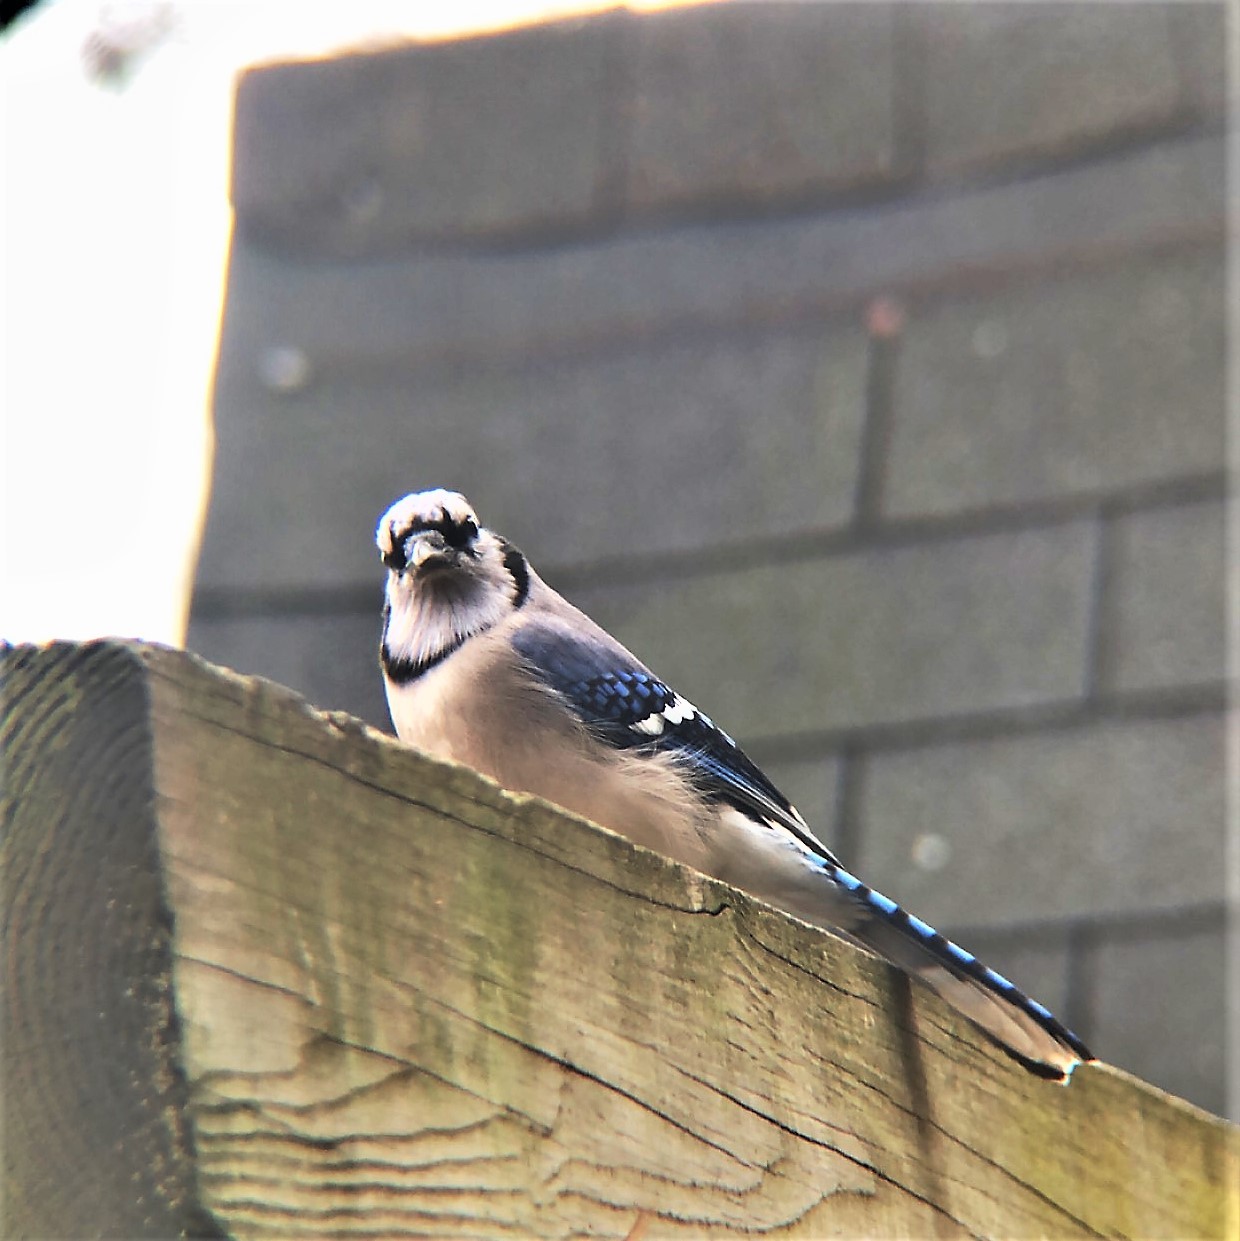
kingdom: Animalia
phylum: Chordata
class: Aves
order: Passeriformes
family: Corvidae
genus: Cyanocitta
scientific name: Cyanocitta cristata
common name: Blue jay
